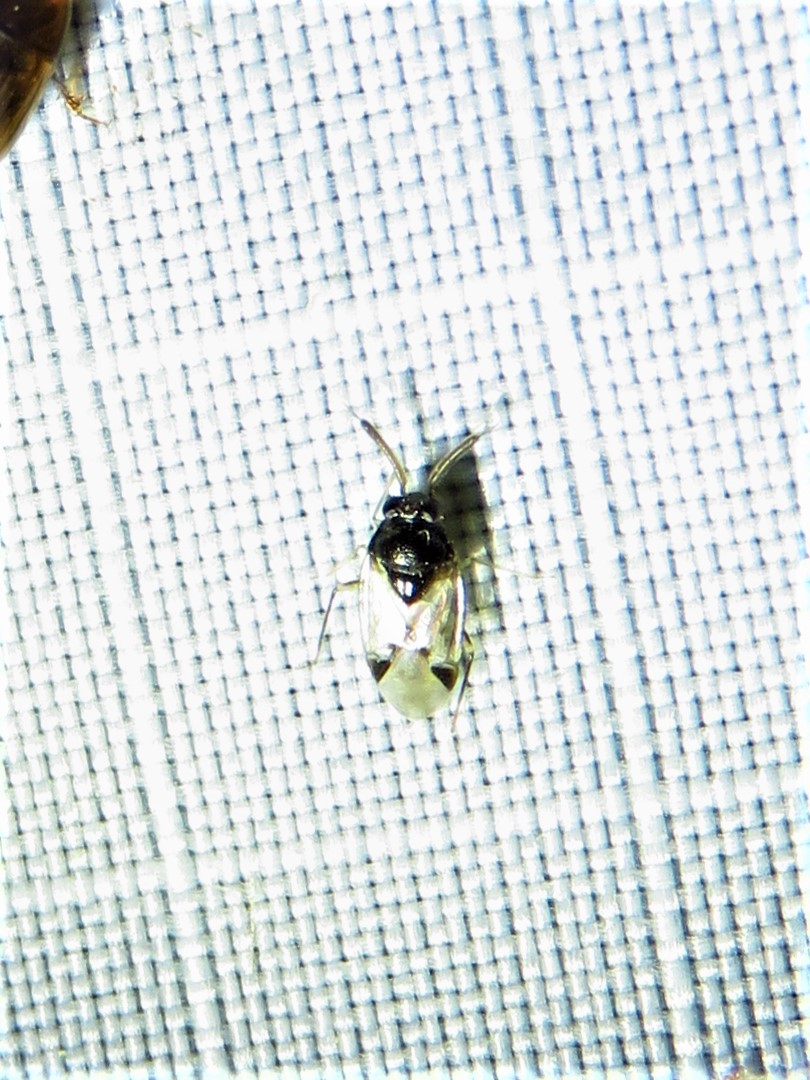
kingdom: Animalia
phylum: Arthropoda
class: Insecta
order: Hemiptera
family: Miridae
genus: Corticoris
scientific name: Corticoris pulchellus
